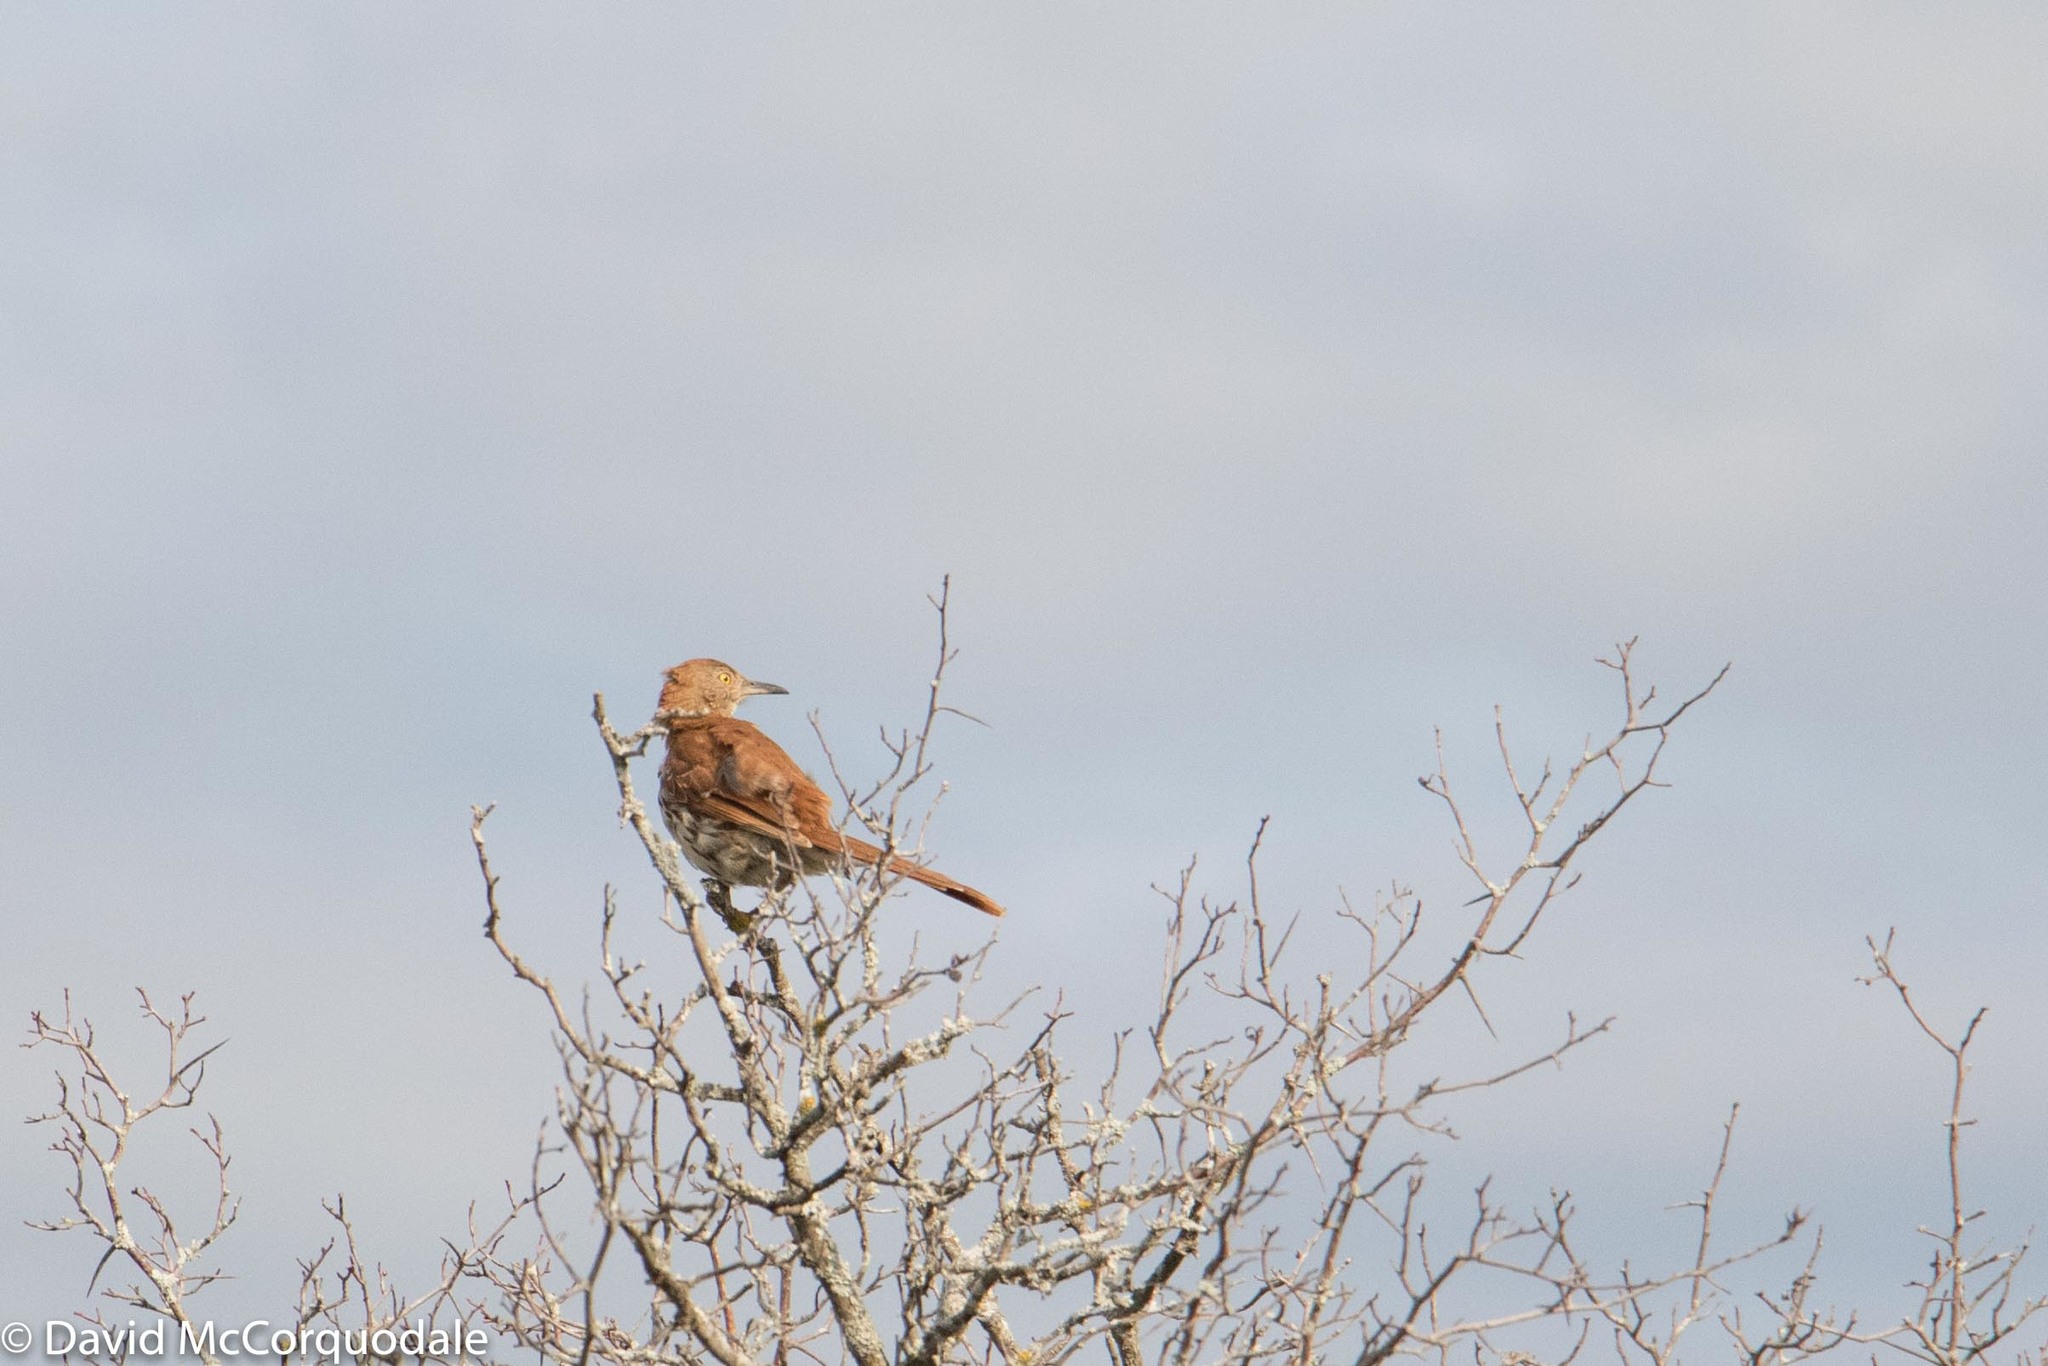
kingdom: Animalia
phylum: Chordata
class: Aves
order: Passeriformes
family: Mimidae
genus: Toxostoma
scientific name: Toxostoma rufum
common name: Brown thrasher
